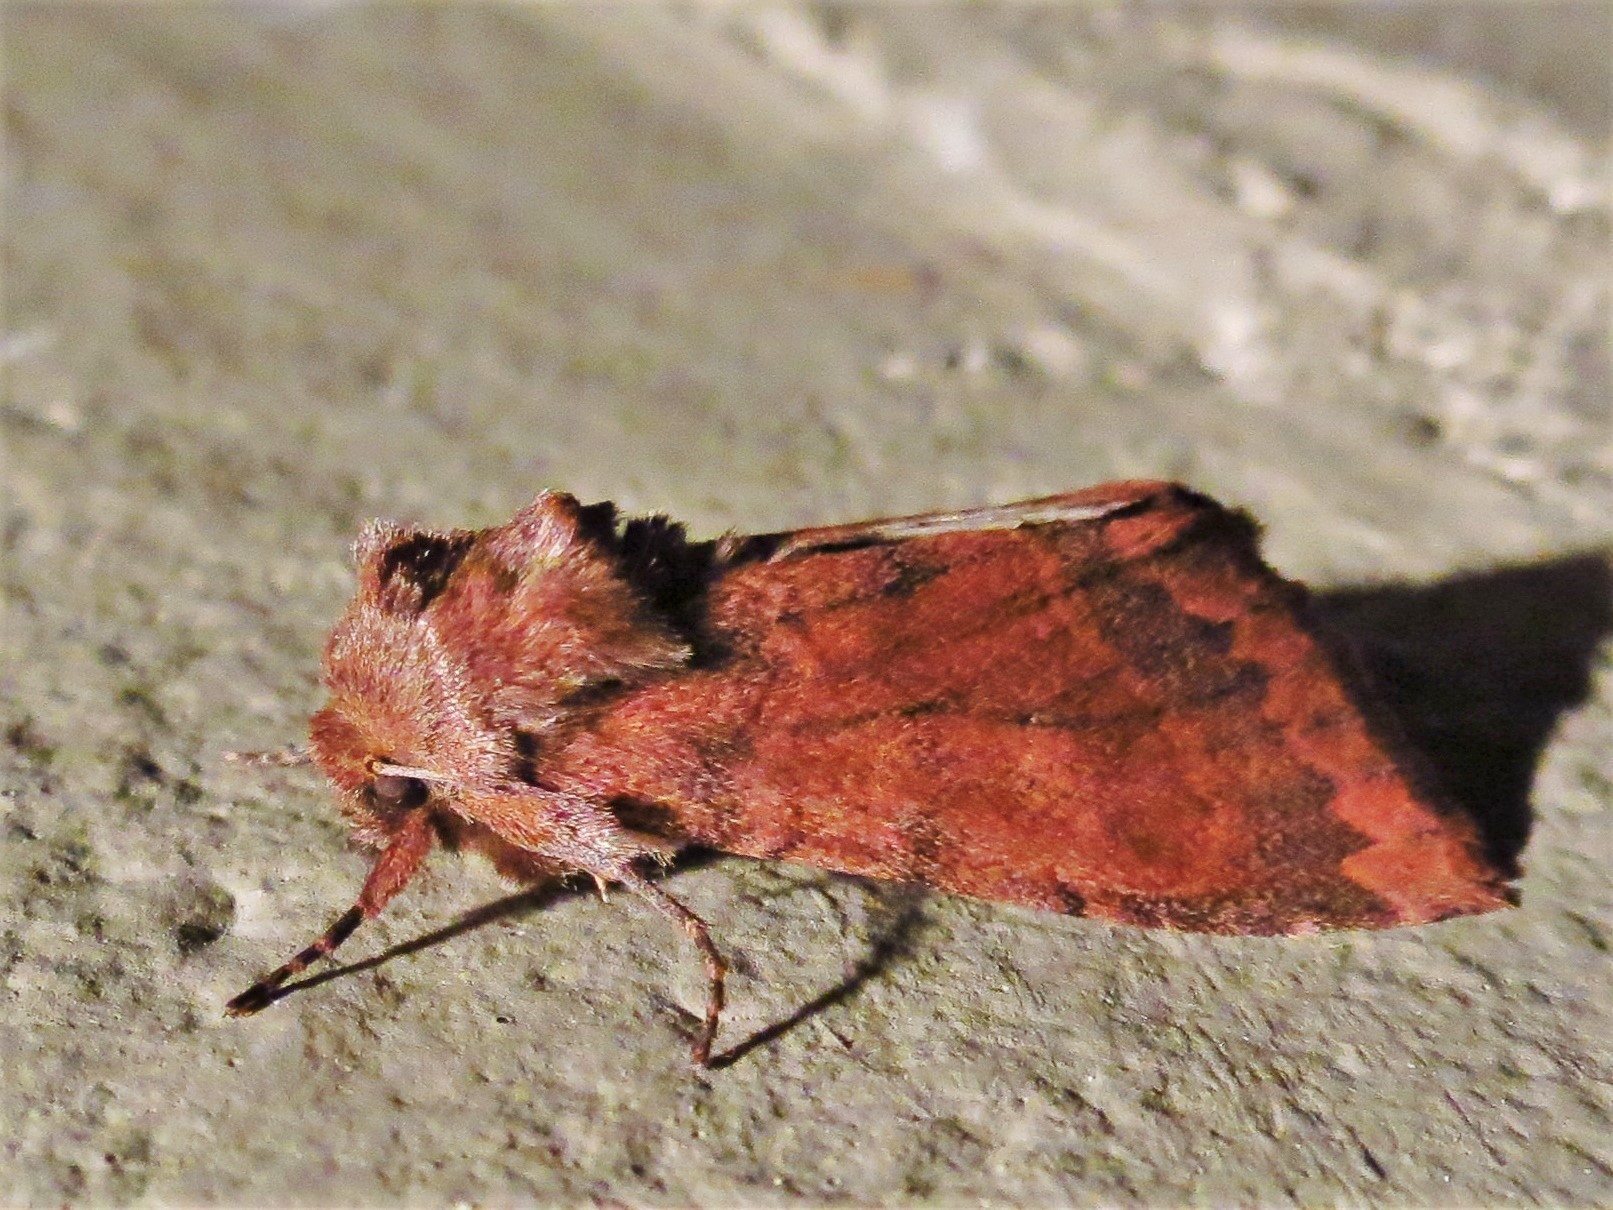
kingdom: Animalia
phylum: Arthropoda
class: Insecta
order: Lepidoptera
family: Noctuidae
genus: Nephelodes
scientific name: Nephelodes minians
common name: Bronzed cutworm
